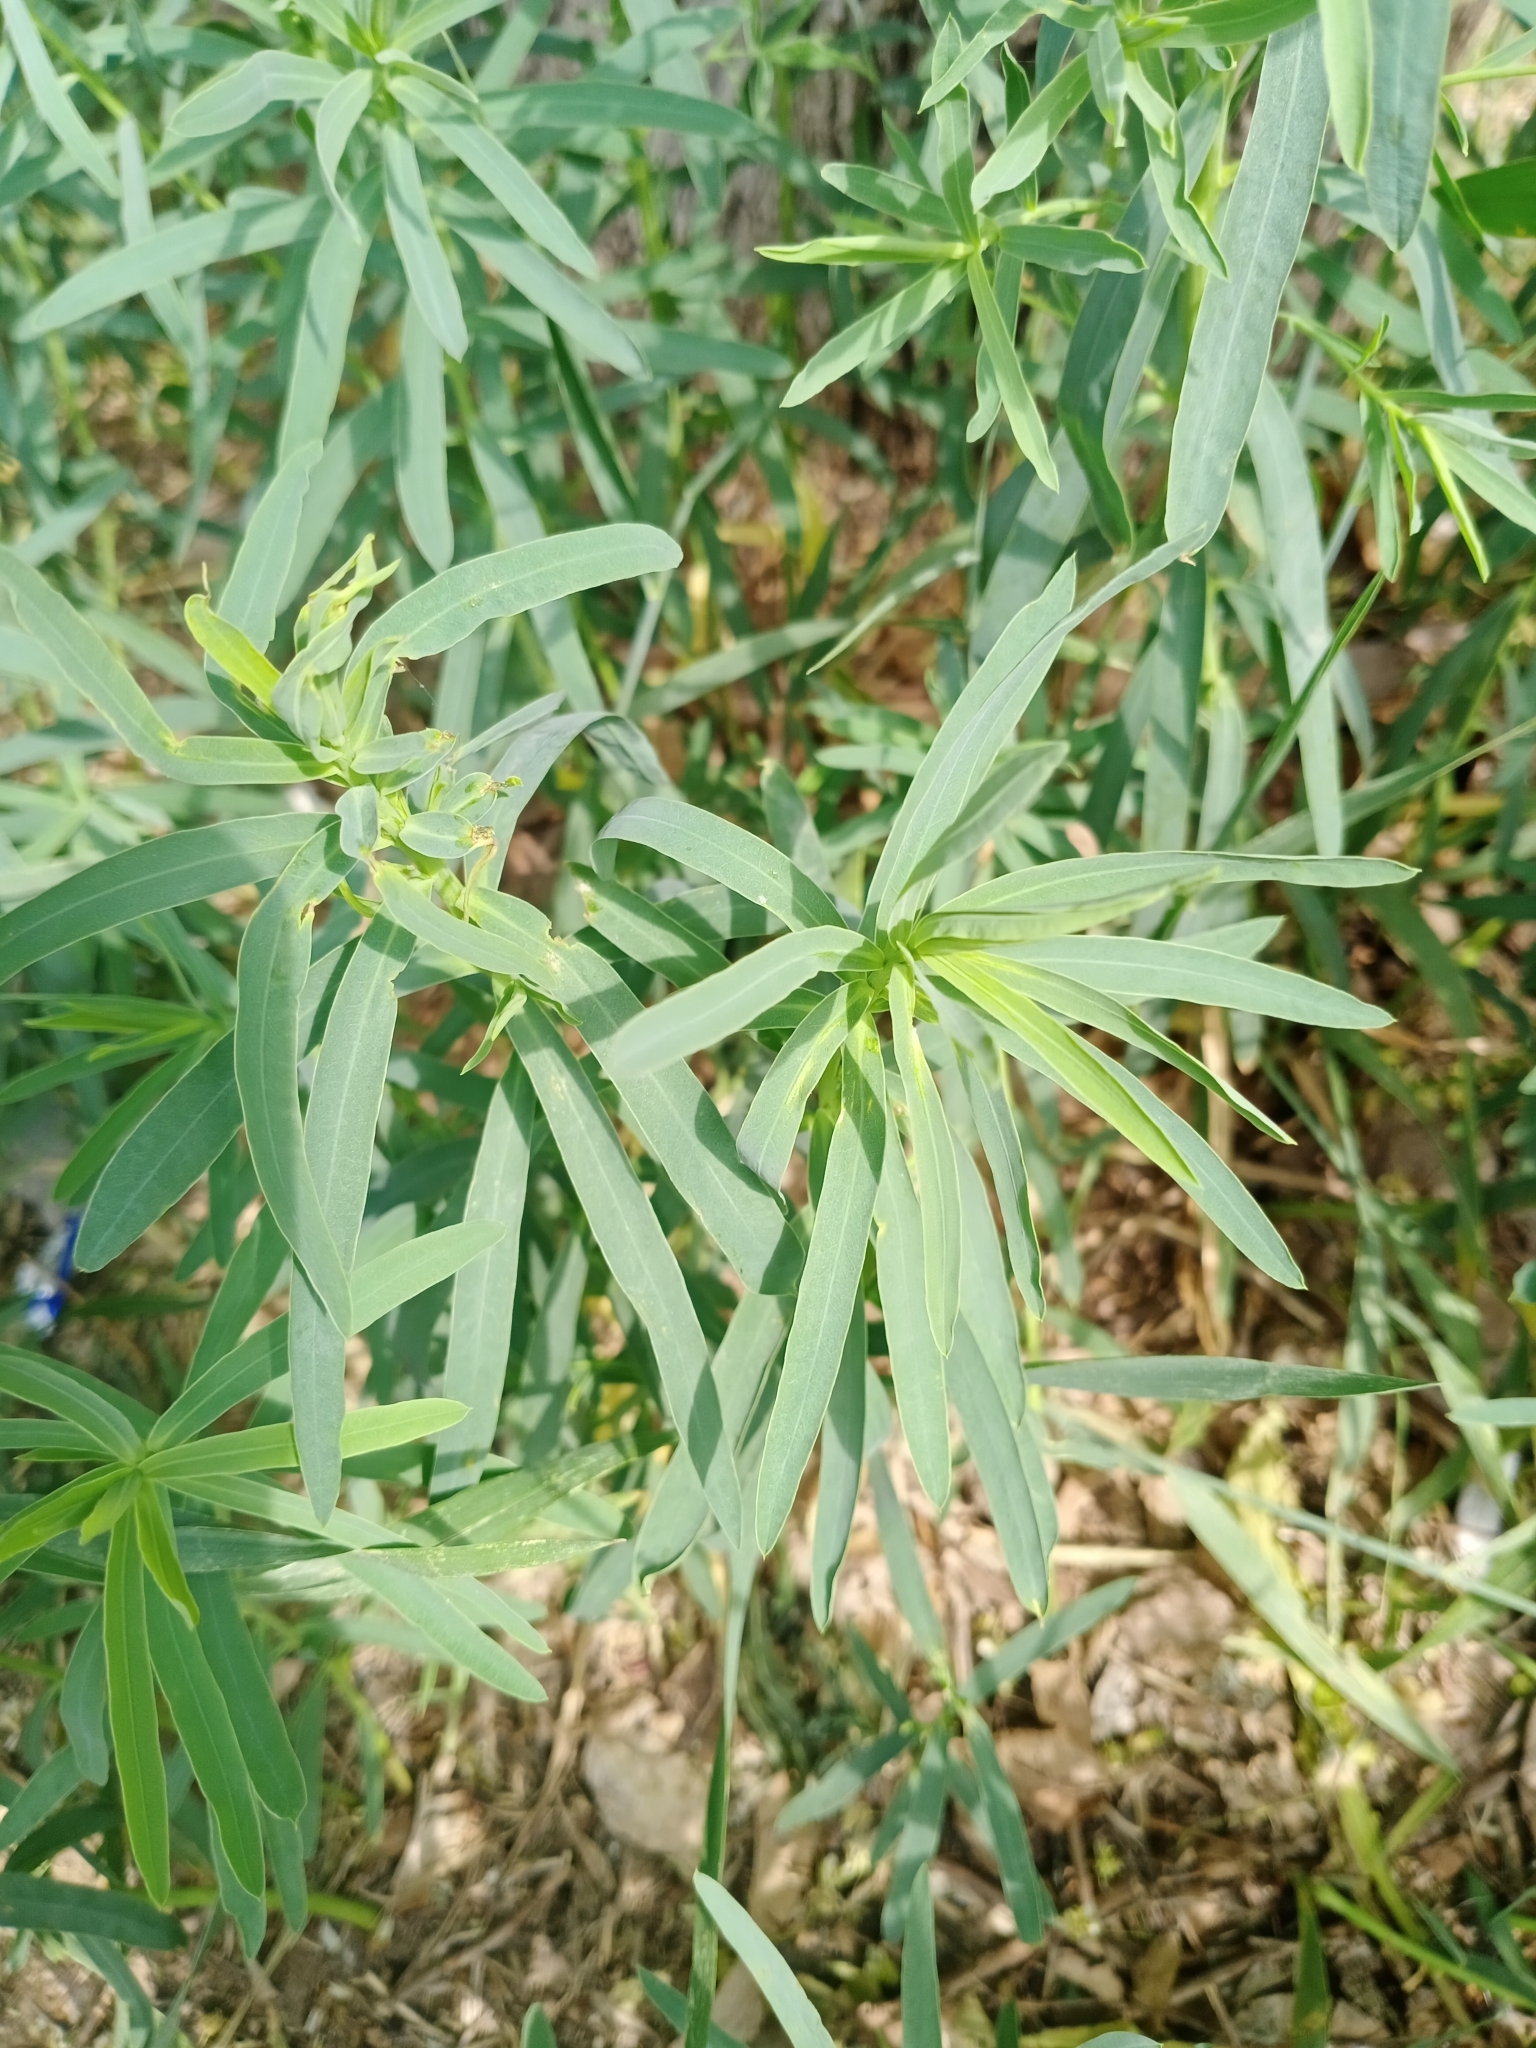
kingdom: Plantae
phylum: Tracheophyta
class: Magnoliopsida
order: Malpighiales
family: Euphorbiaceae
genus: Euphorbia
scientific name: Euphorbia virgata
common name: Leafy spurge
